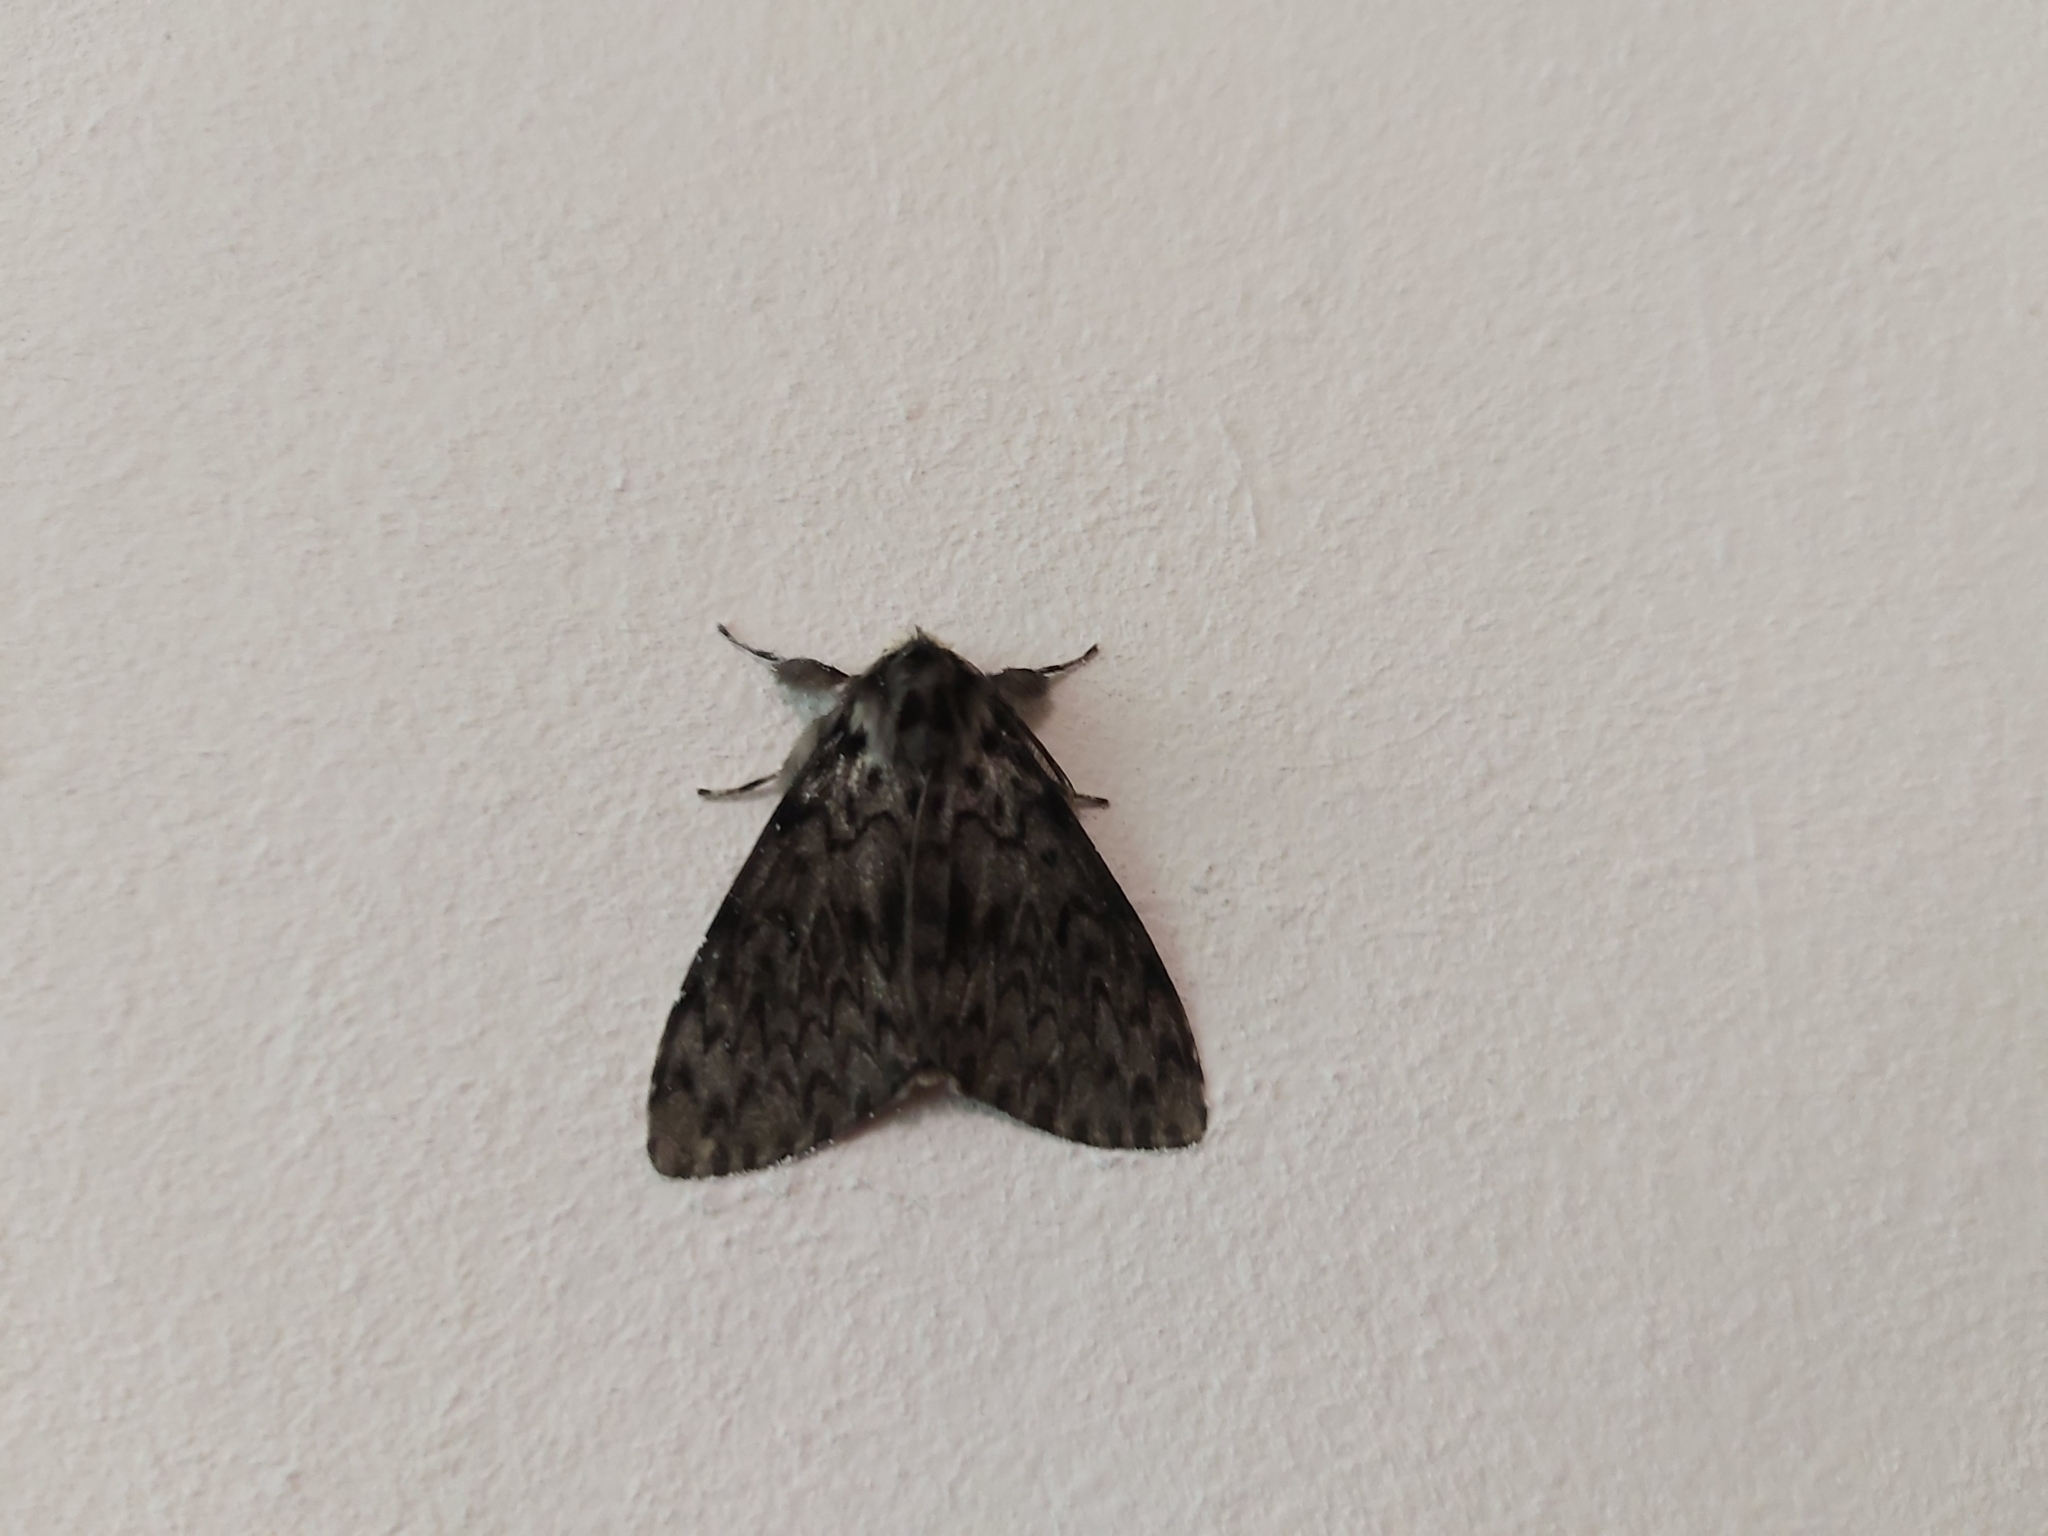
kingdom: Animalia
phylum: Arthropoda
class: Insecta
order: Lepidoptera
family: Erebidae
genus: Lymantria
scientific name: Lymantria monacha
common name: Black arches
